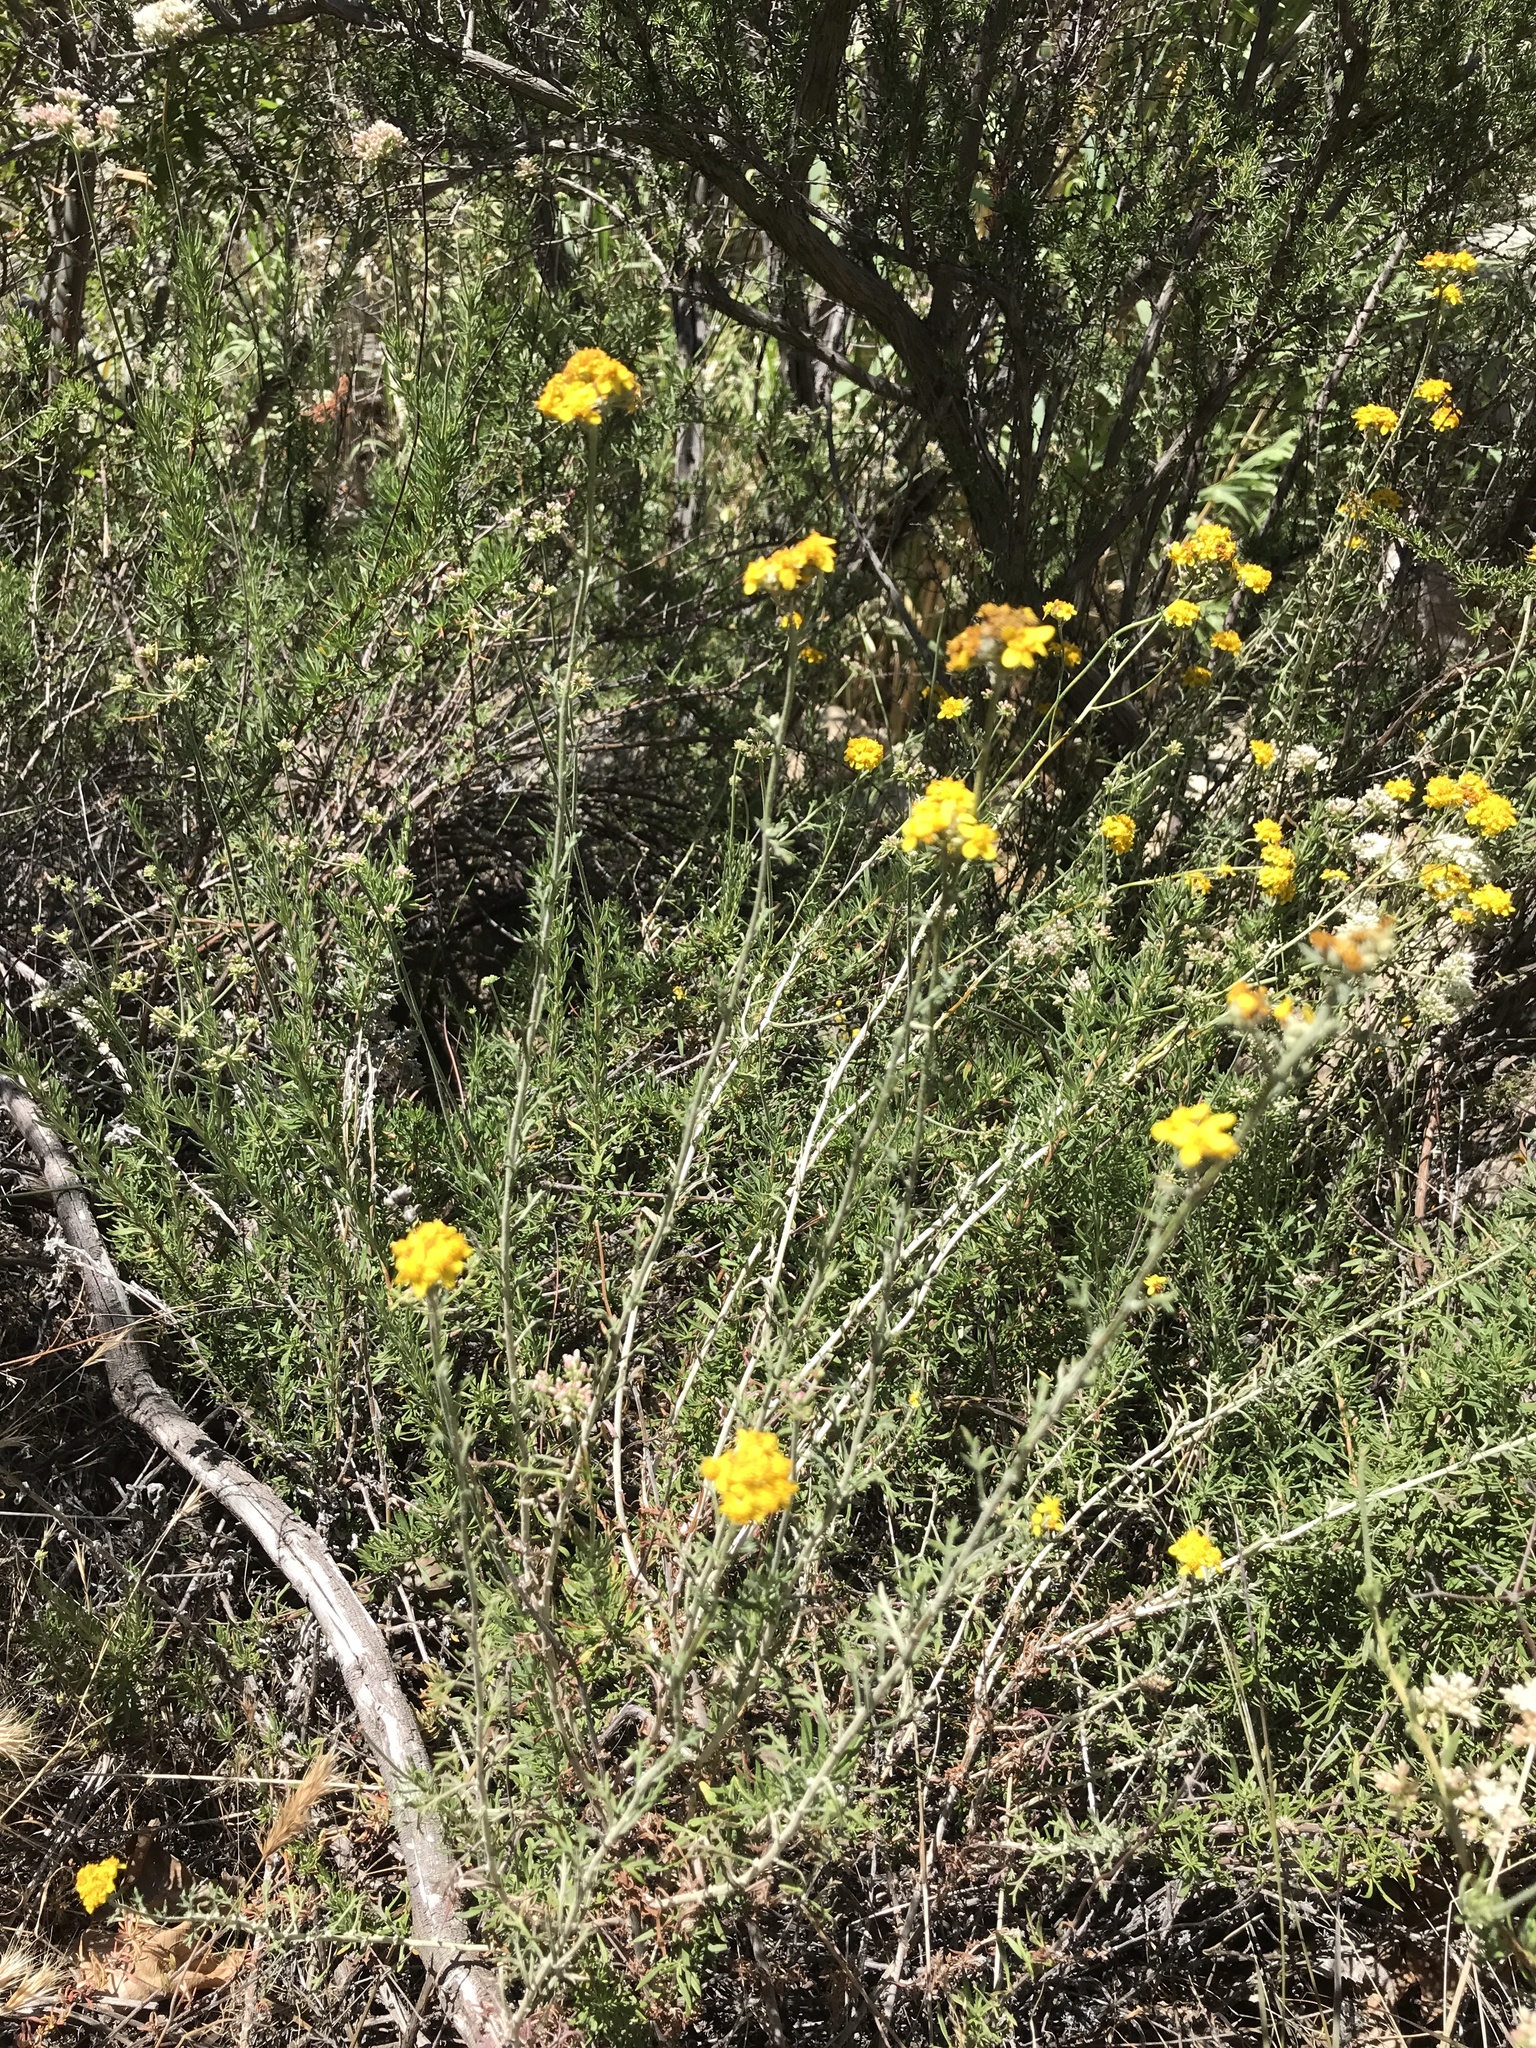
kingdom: Plantae
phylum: Tracheophyta
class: Magnoliopsida
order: Asterales
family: Asteraceae
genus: Eriophyllum
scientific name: Eriophyllum confertiflorum
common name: Golden-yarrow
